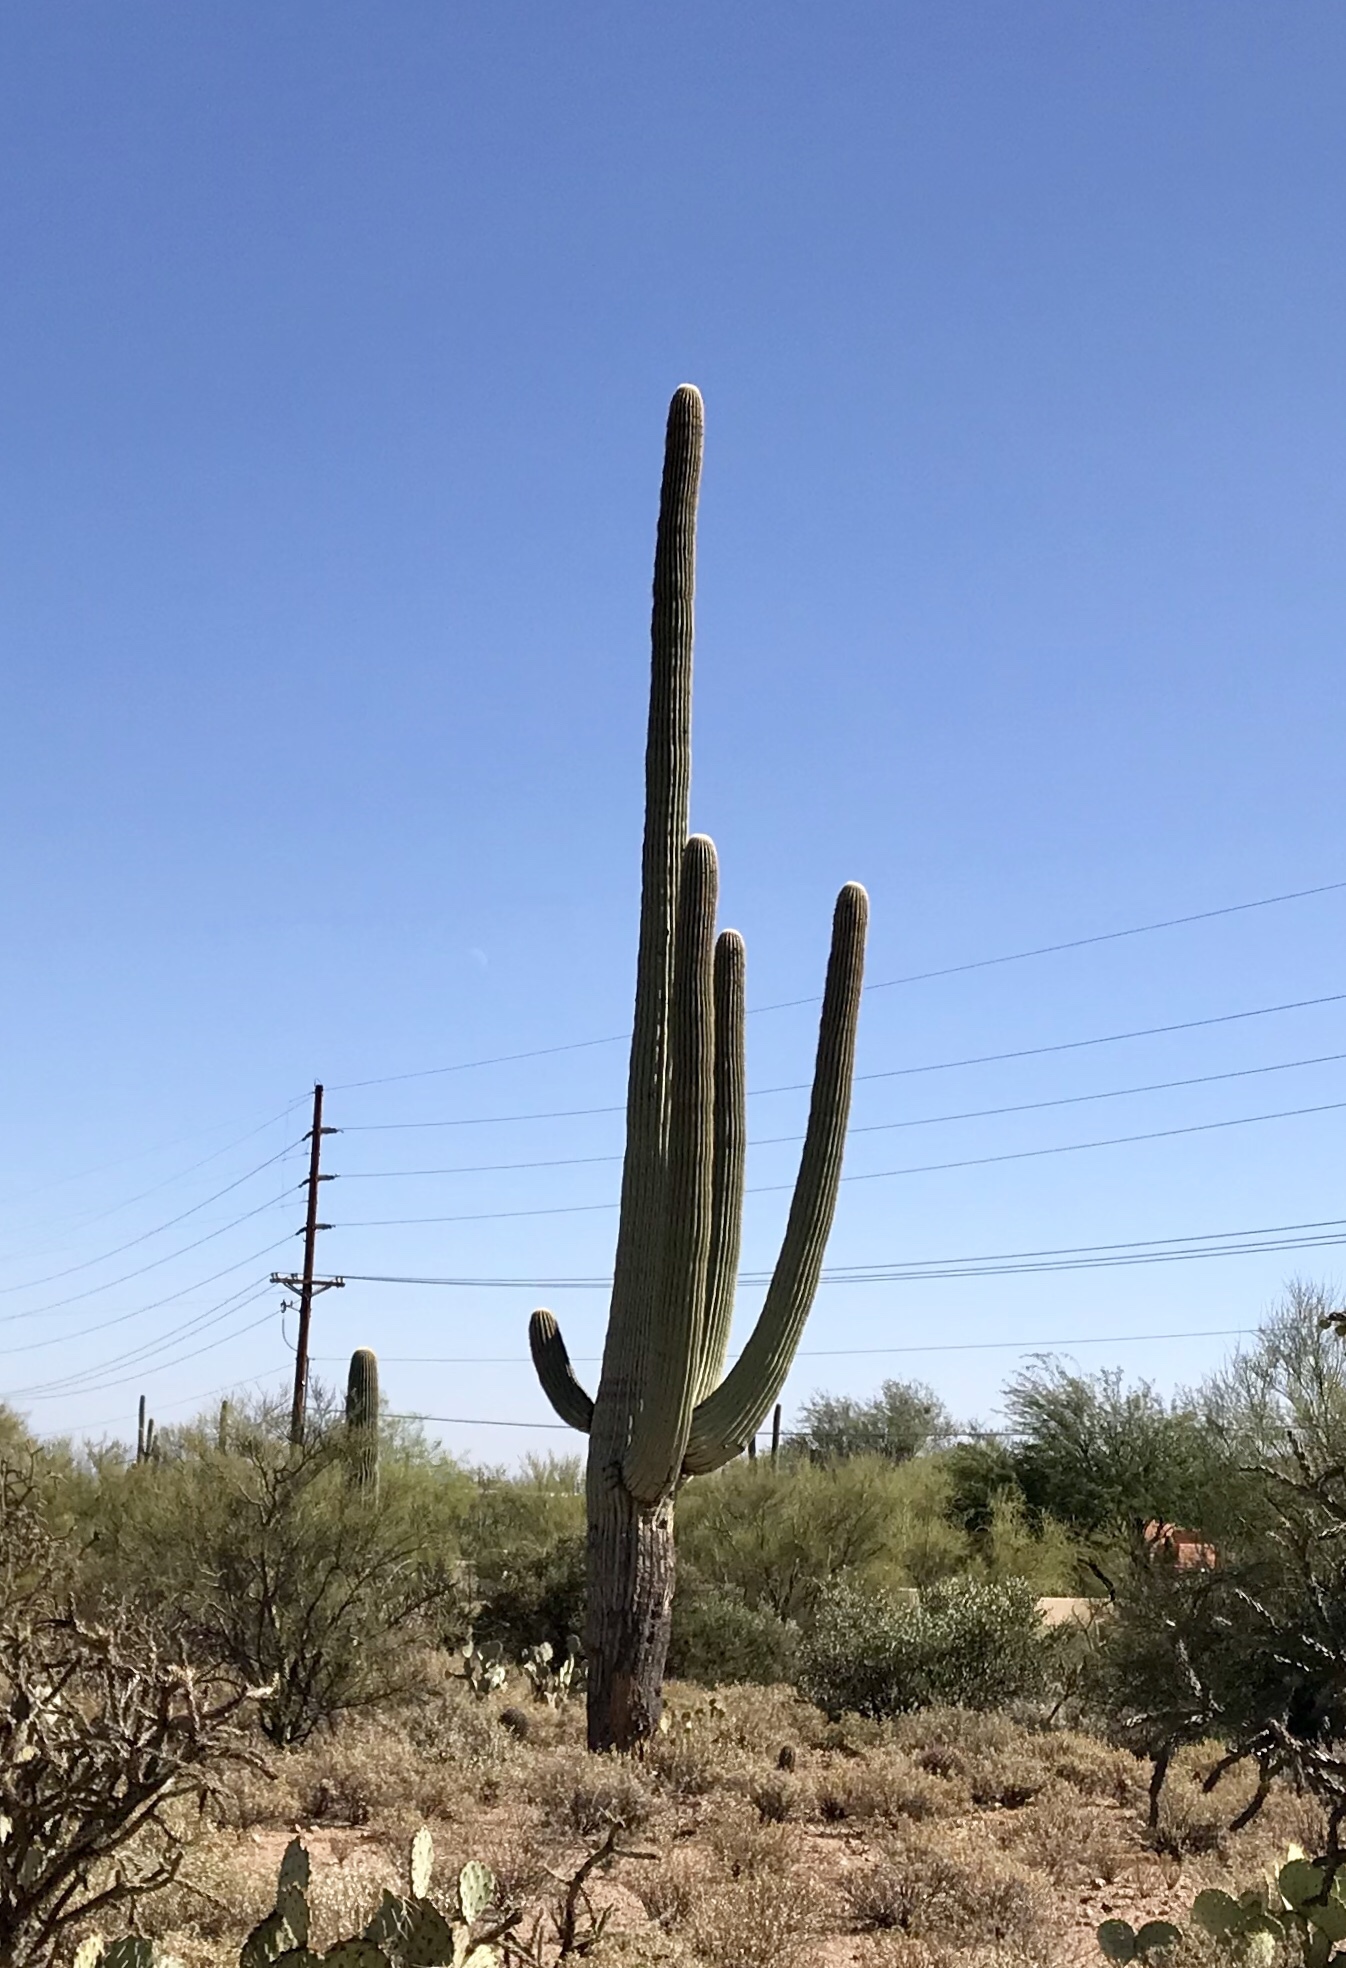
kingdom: Plantae
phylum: Tracheophyta
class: Magnoliopsida
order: Caryophyllales
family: Cactaceae
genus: Carnegiea
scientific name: Carnegiea gigantea
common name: Saguaro
